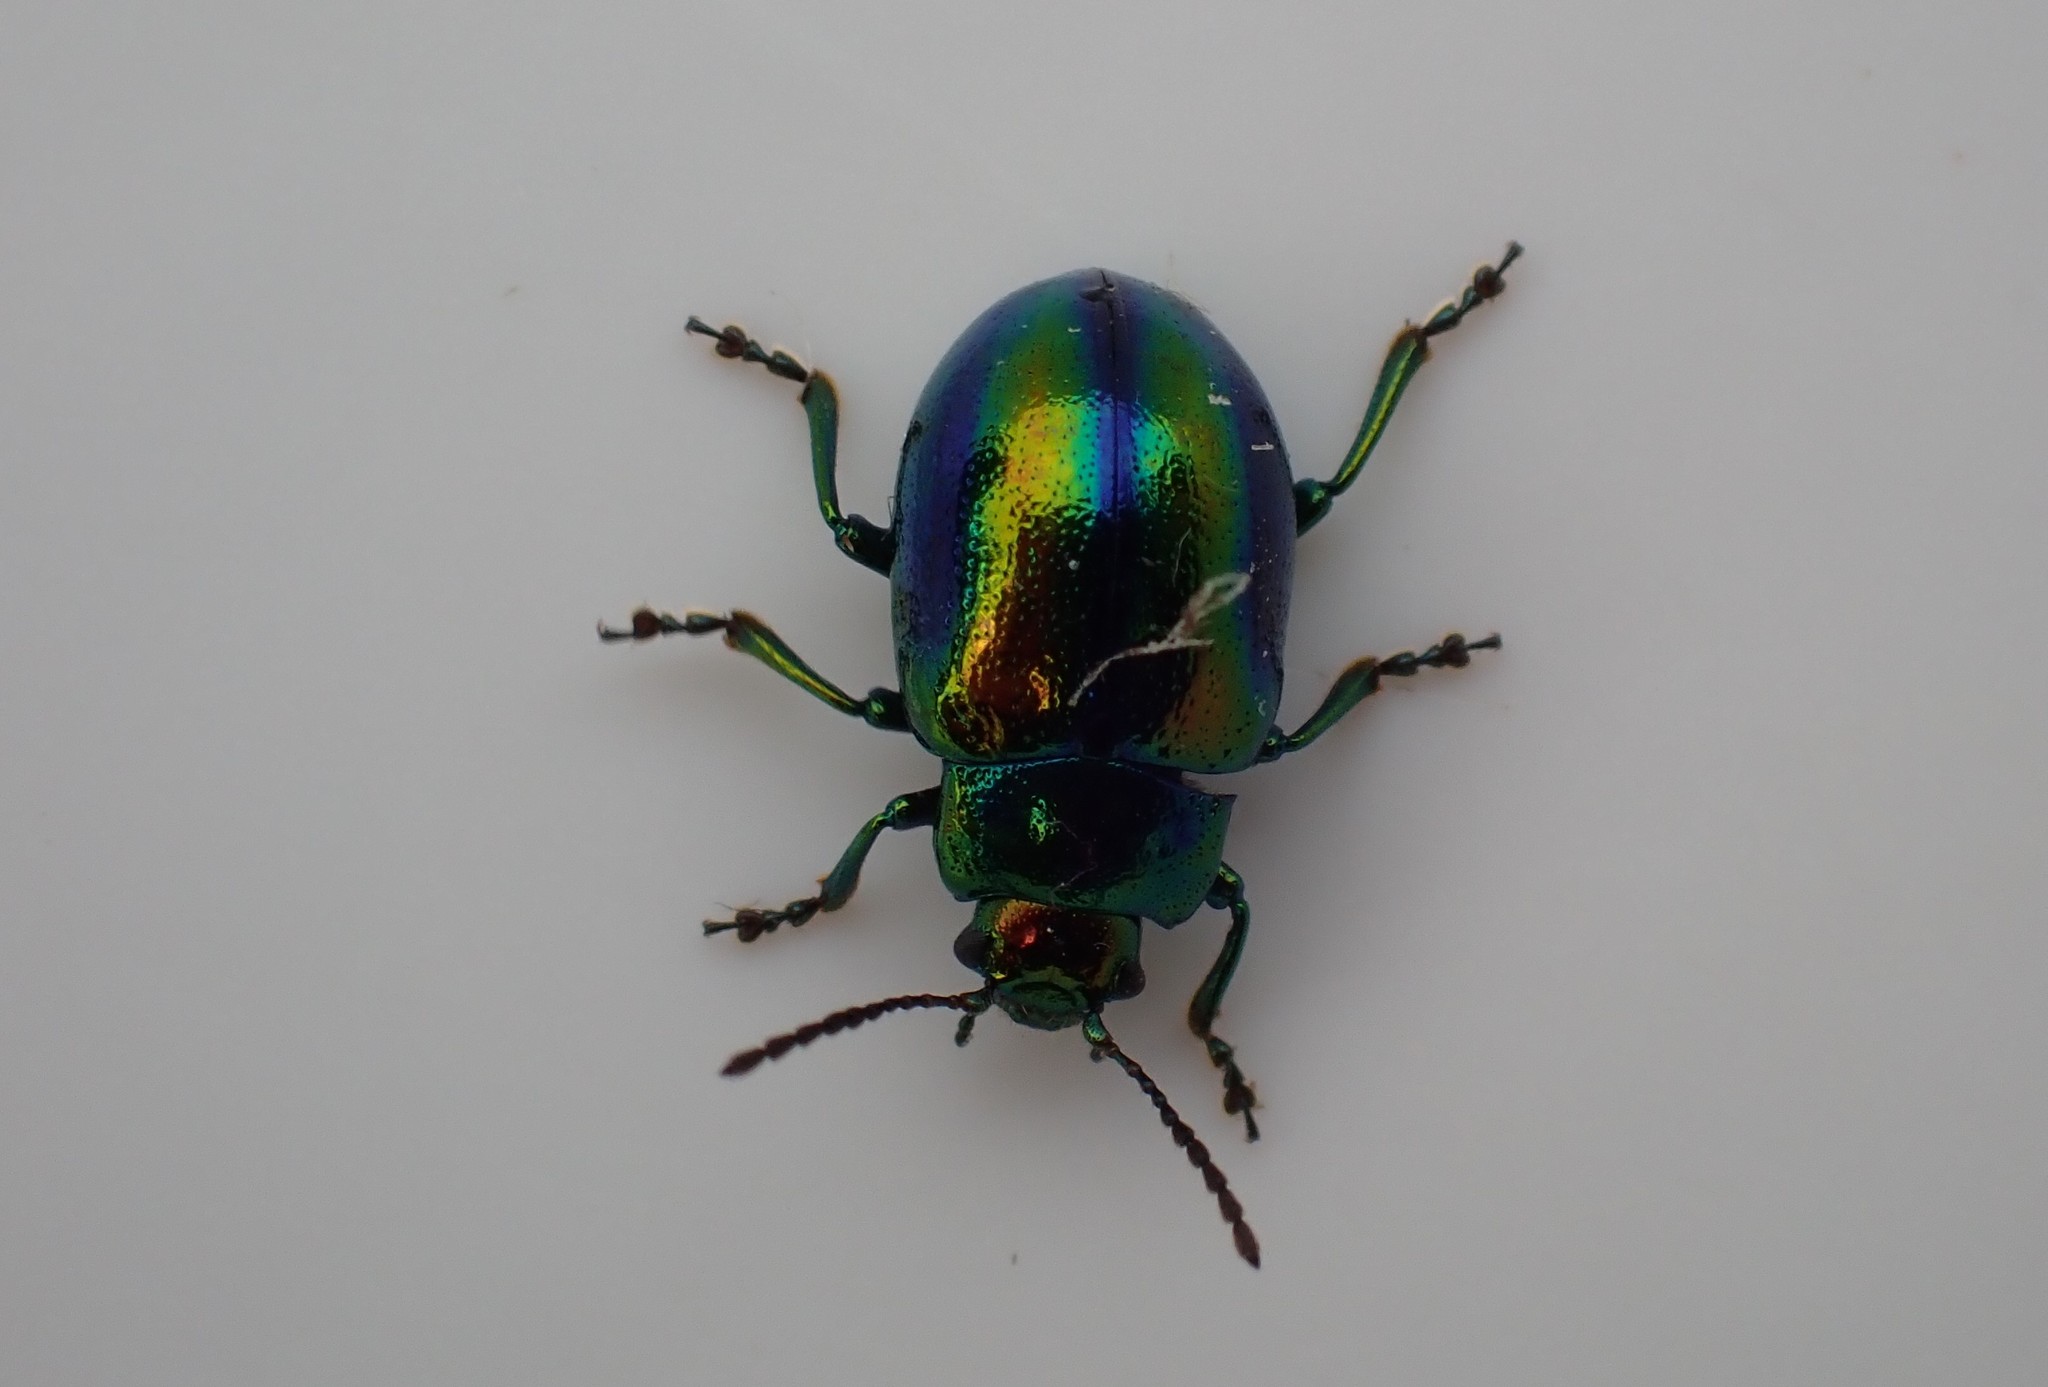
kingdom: Animalia
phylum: Arthropoda
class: Insecta
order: Coleoptera
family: Chrysomelidae
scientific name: Chrysomelidae
